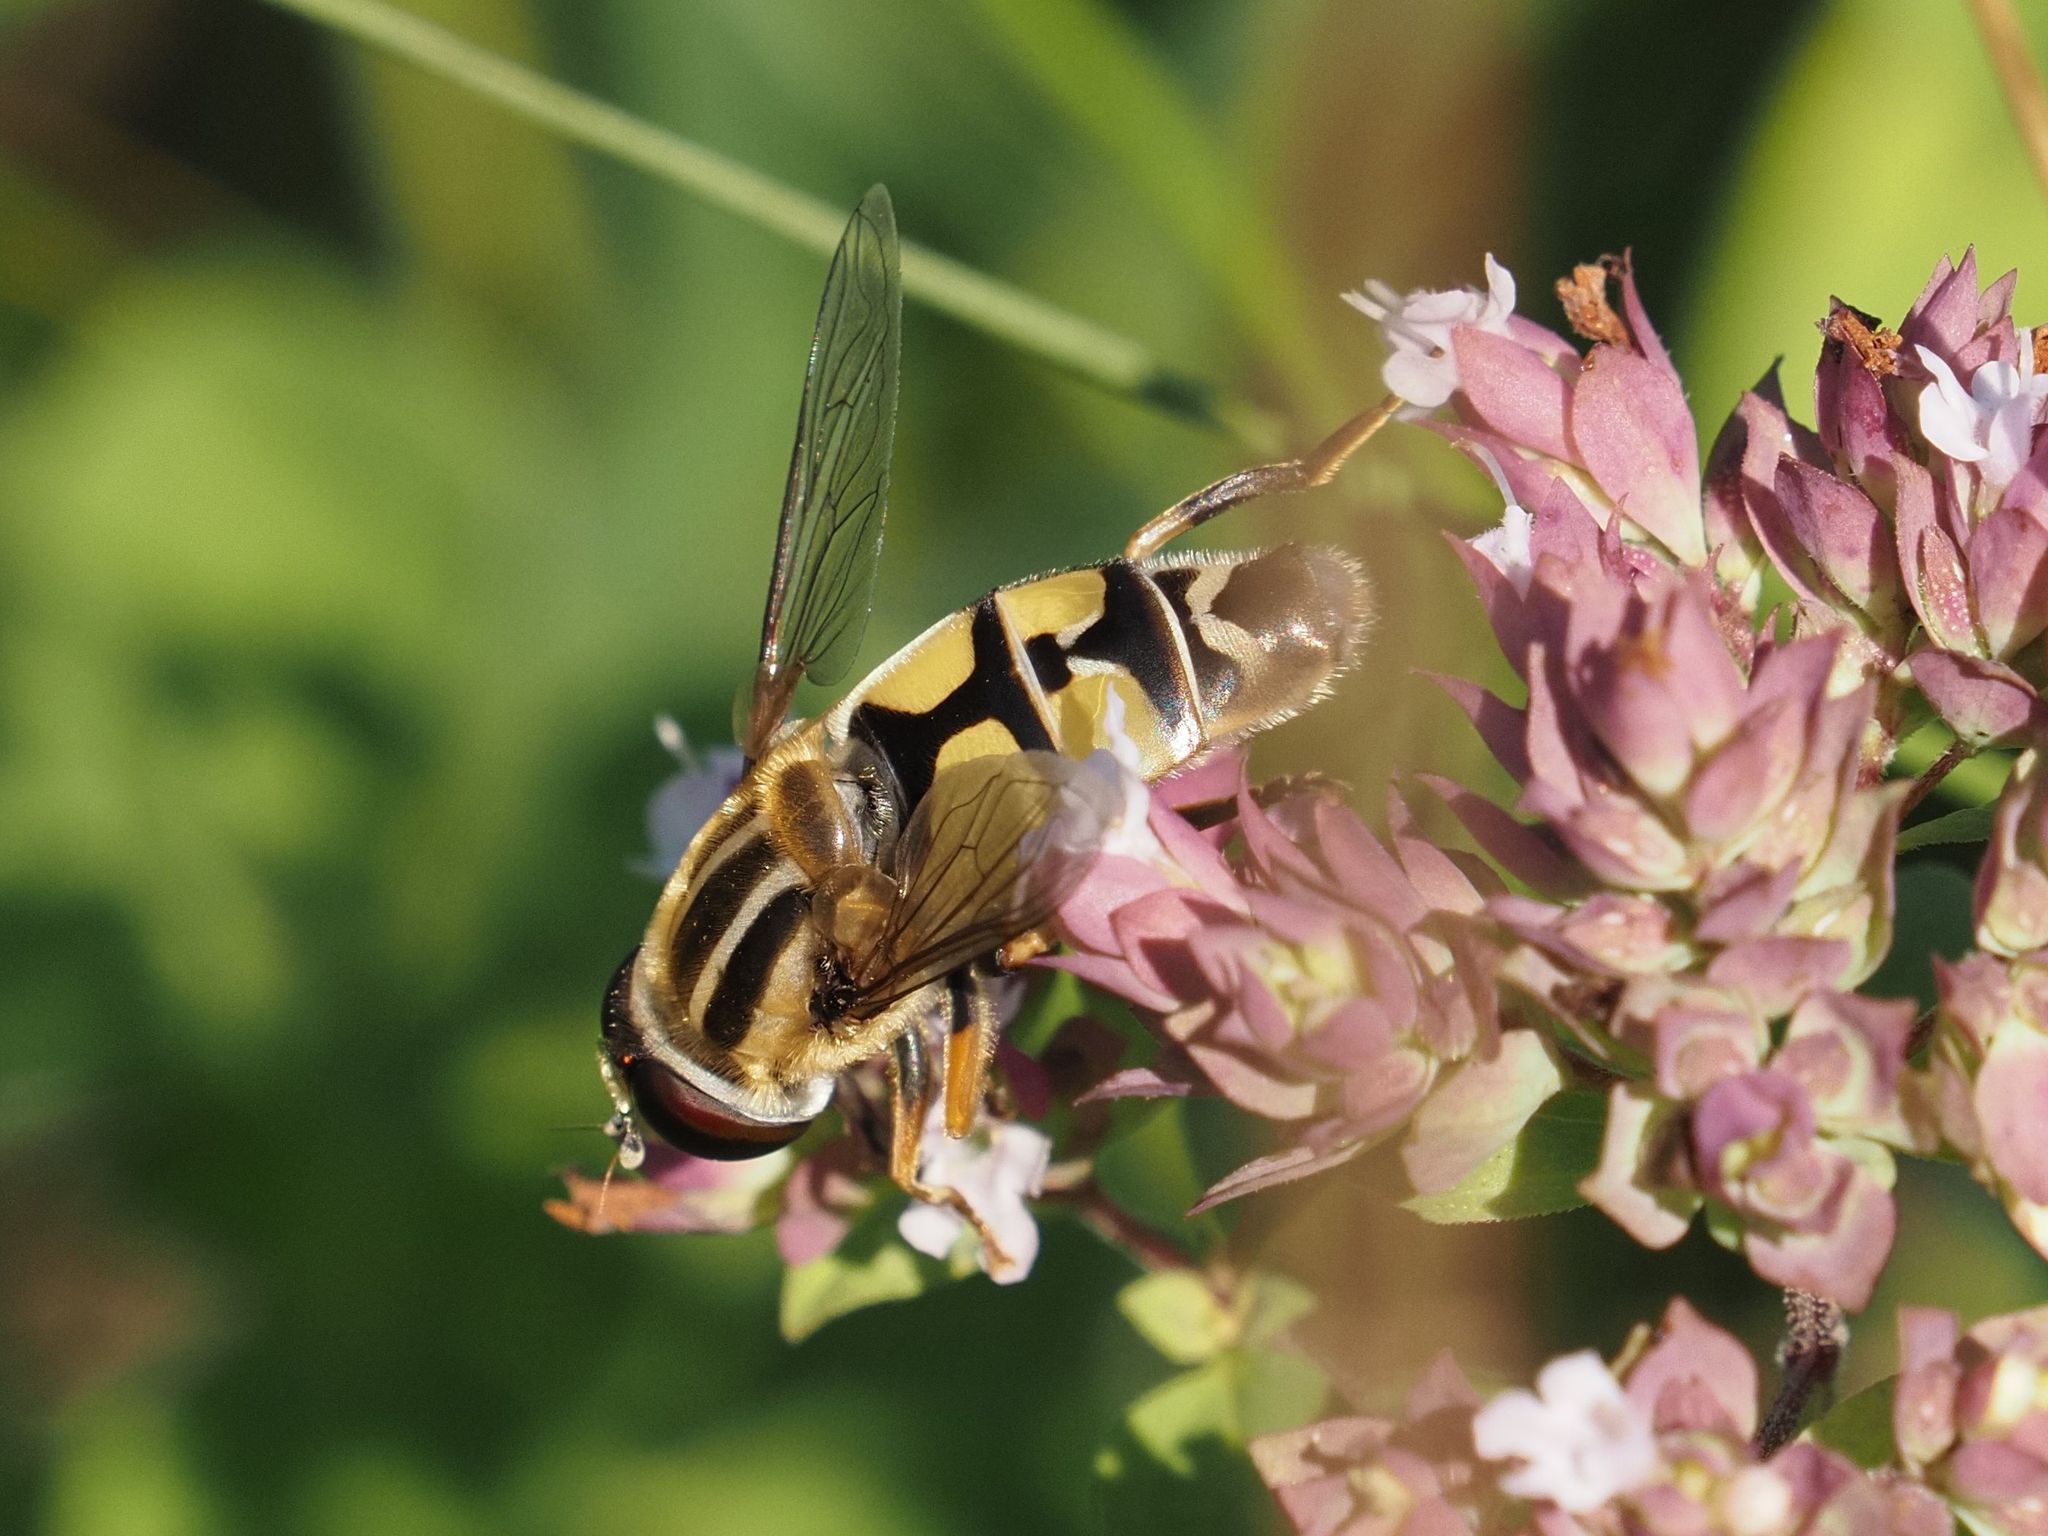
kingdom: Animalia
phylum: Arthropoda
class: Insecta
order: Diptera
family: Syrphidae
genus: Helophilus
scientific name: Helophilus trivittatus
